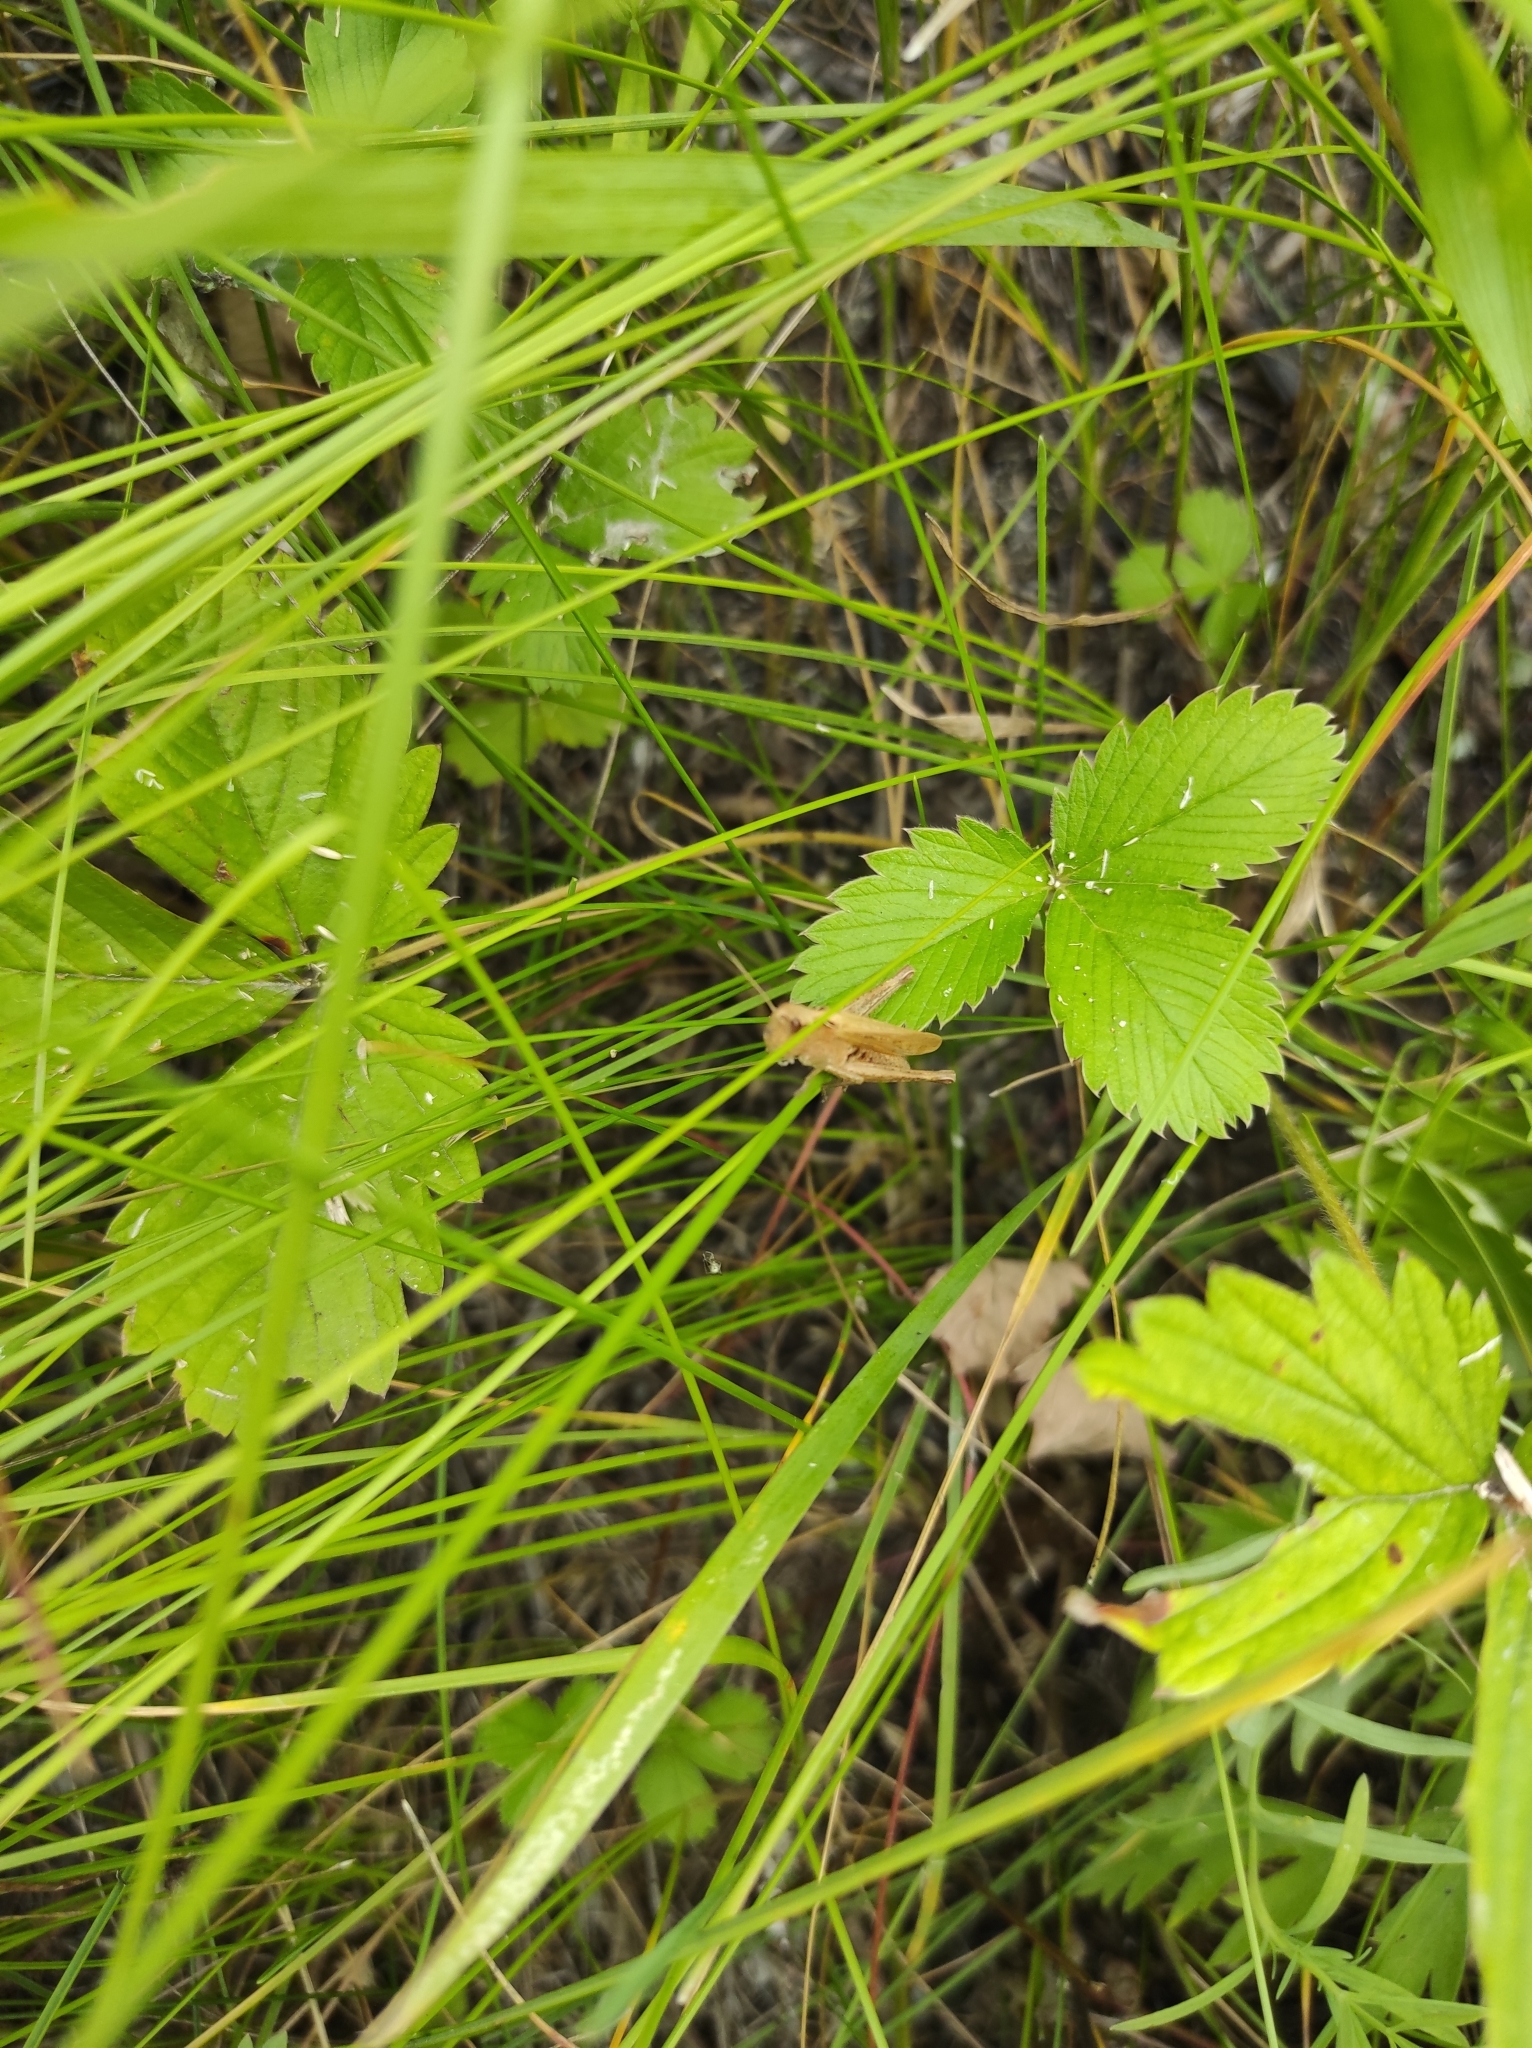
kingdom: Plantae
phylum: Tracheophyta
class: Magnoliopsida
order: Rosales
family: Rosaceae
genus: Fragaria
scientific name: Fragaria viridis
